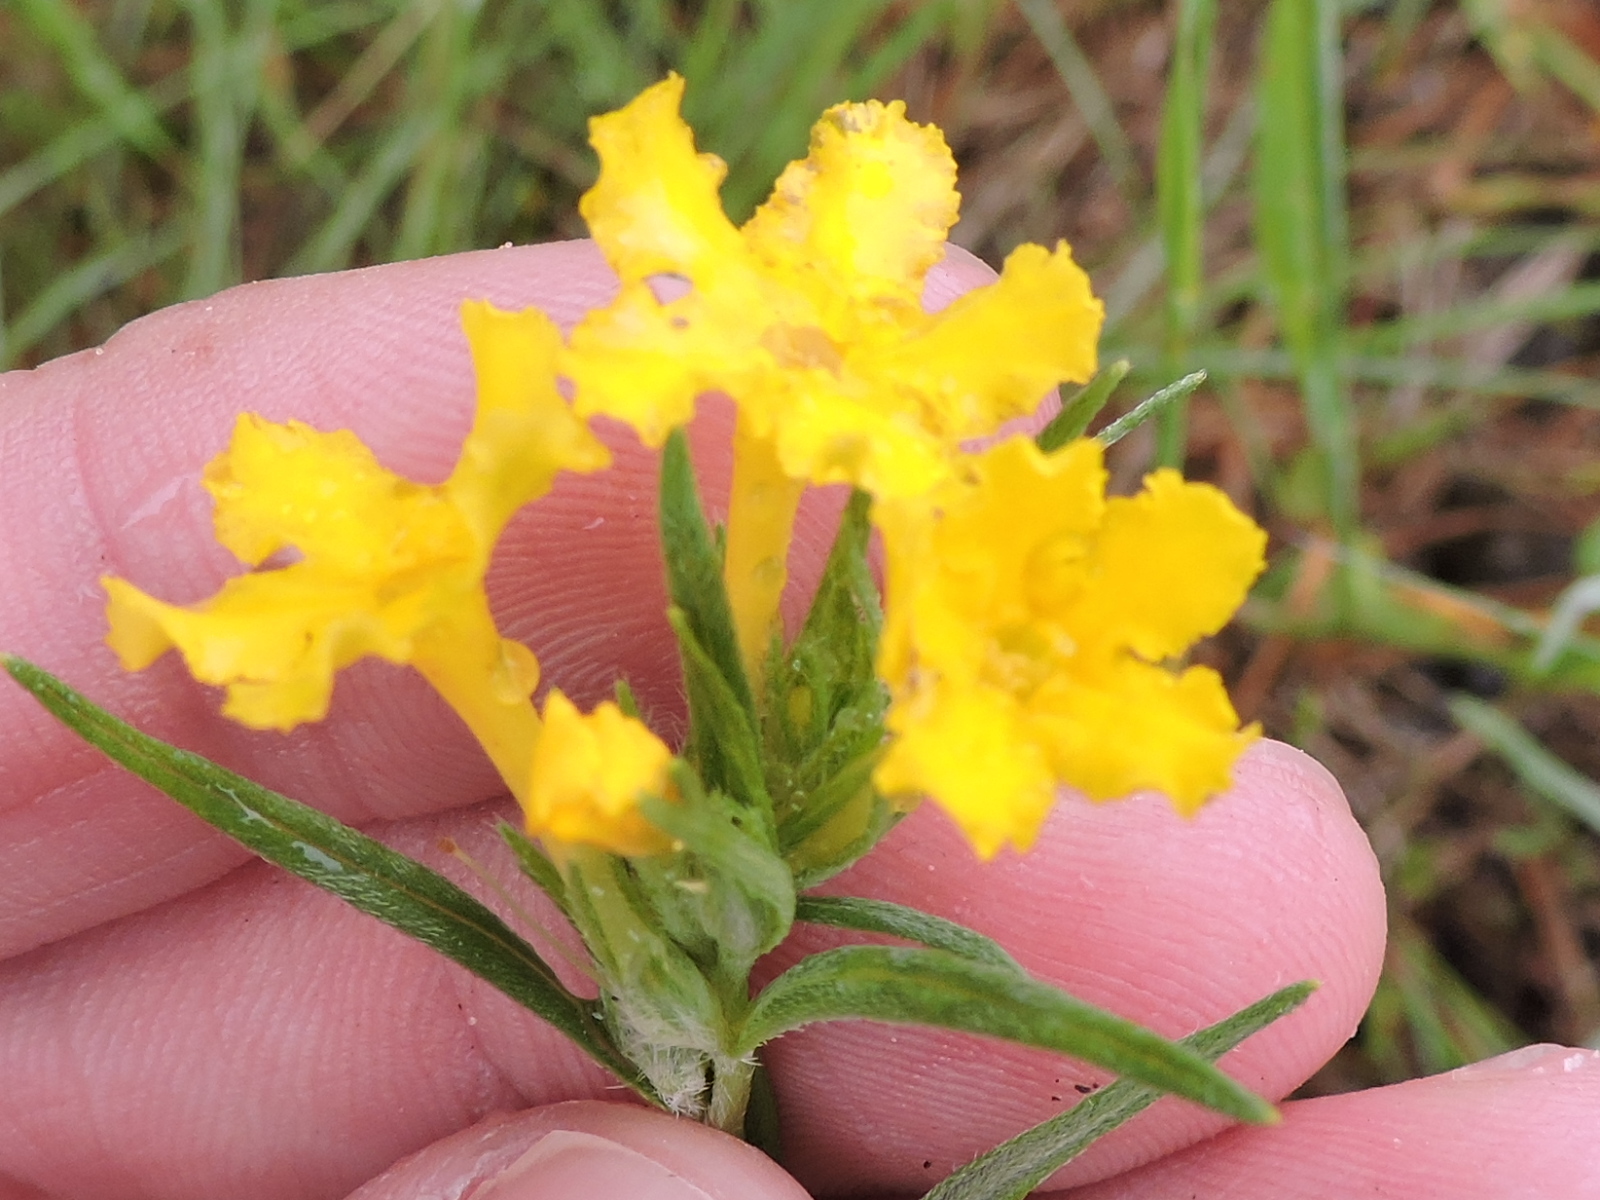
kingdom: Plantae
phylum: Tracheophyta
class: Magnoliopsida
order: Boraginales
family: Boraginaceae
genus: Lithospermum
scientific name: Lithospermum incisum
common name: Fringed gromwell
